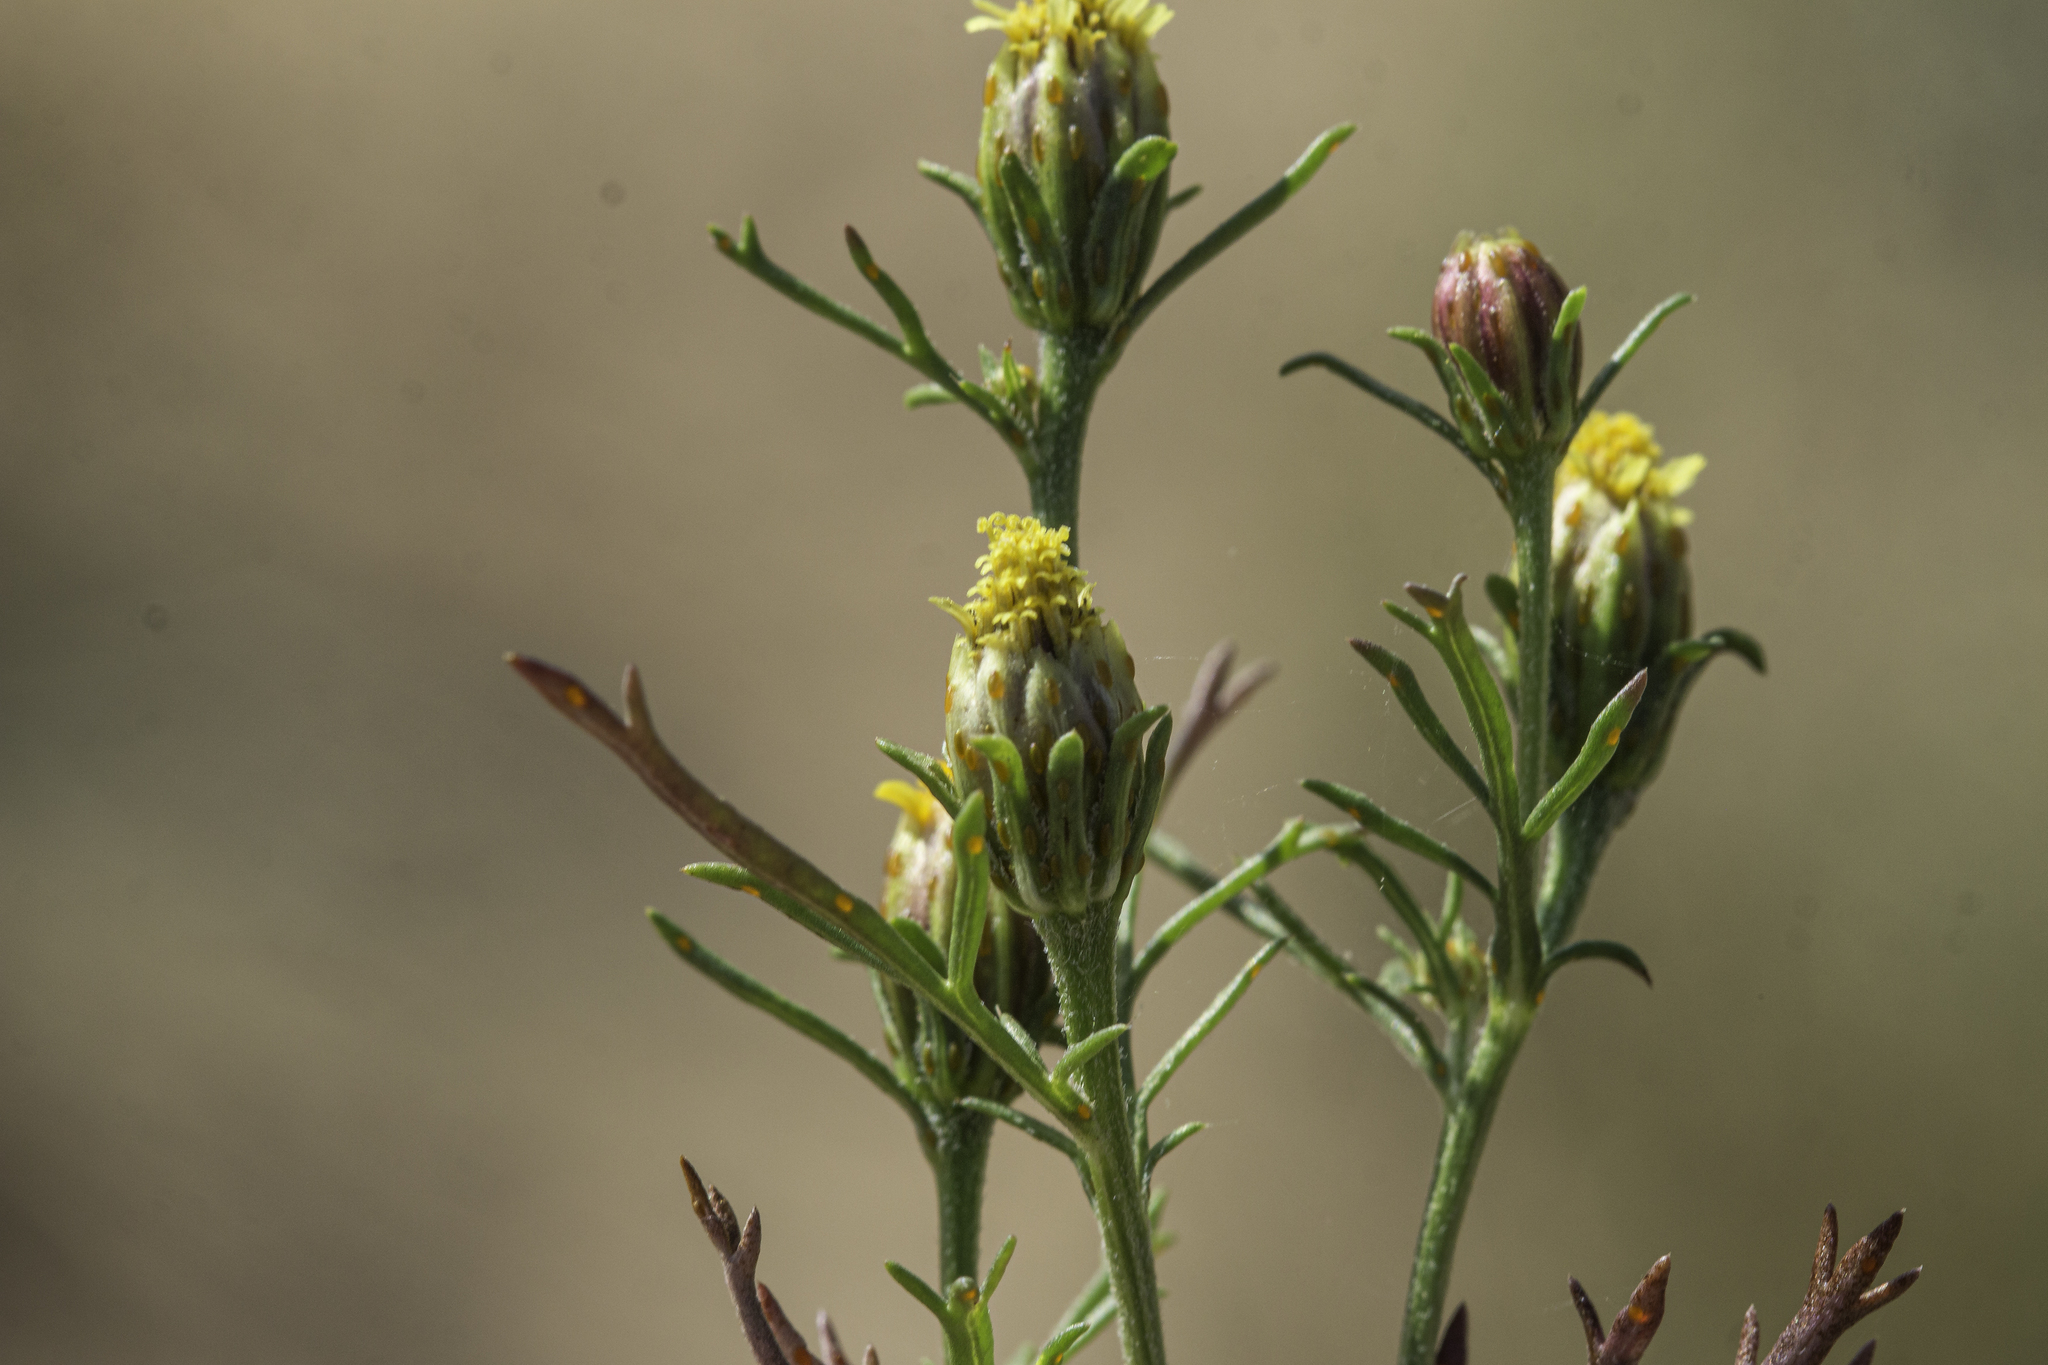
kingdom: Plantae
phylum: Tracheophyta
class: Magnoliopsida
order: Asterales
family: Asteraceae
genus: Dyssodia
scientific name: Dyssodia papposa
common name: Dogweed
